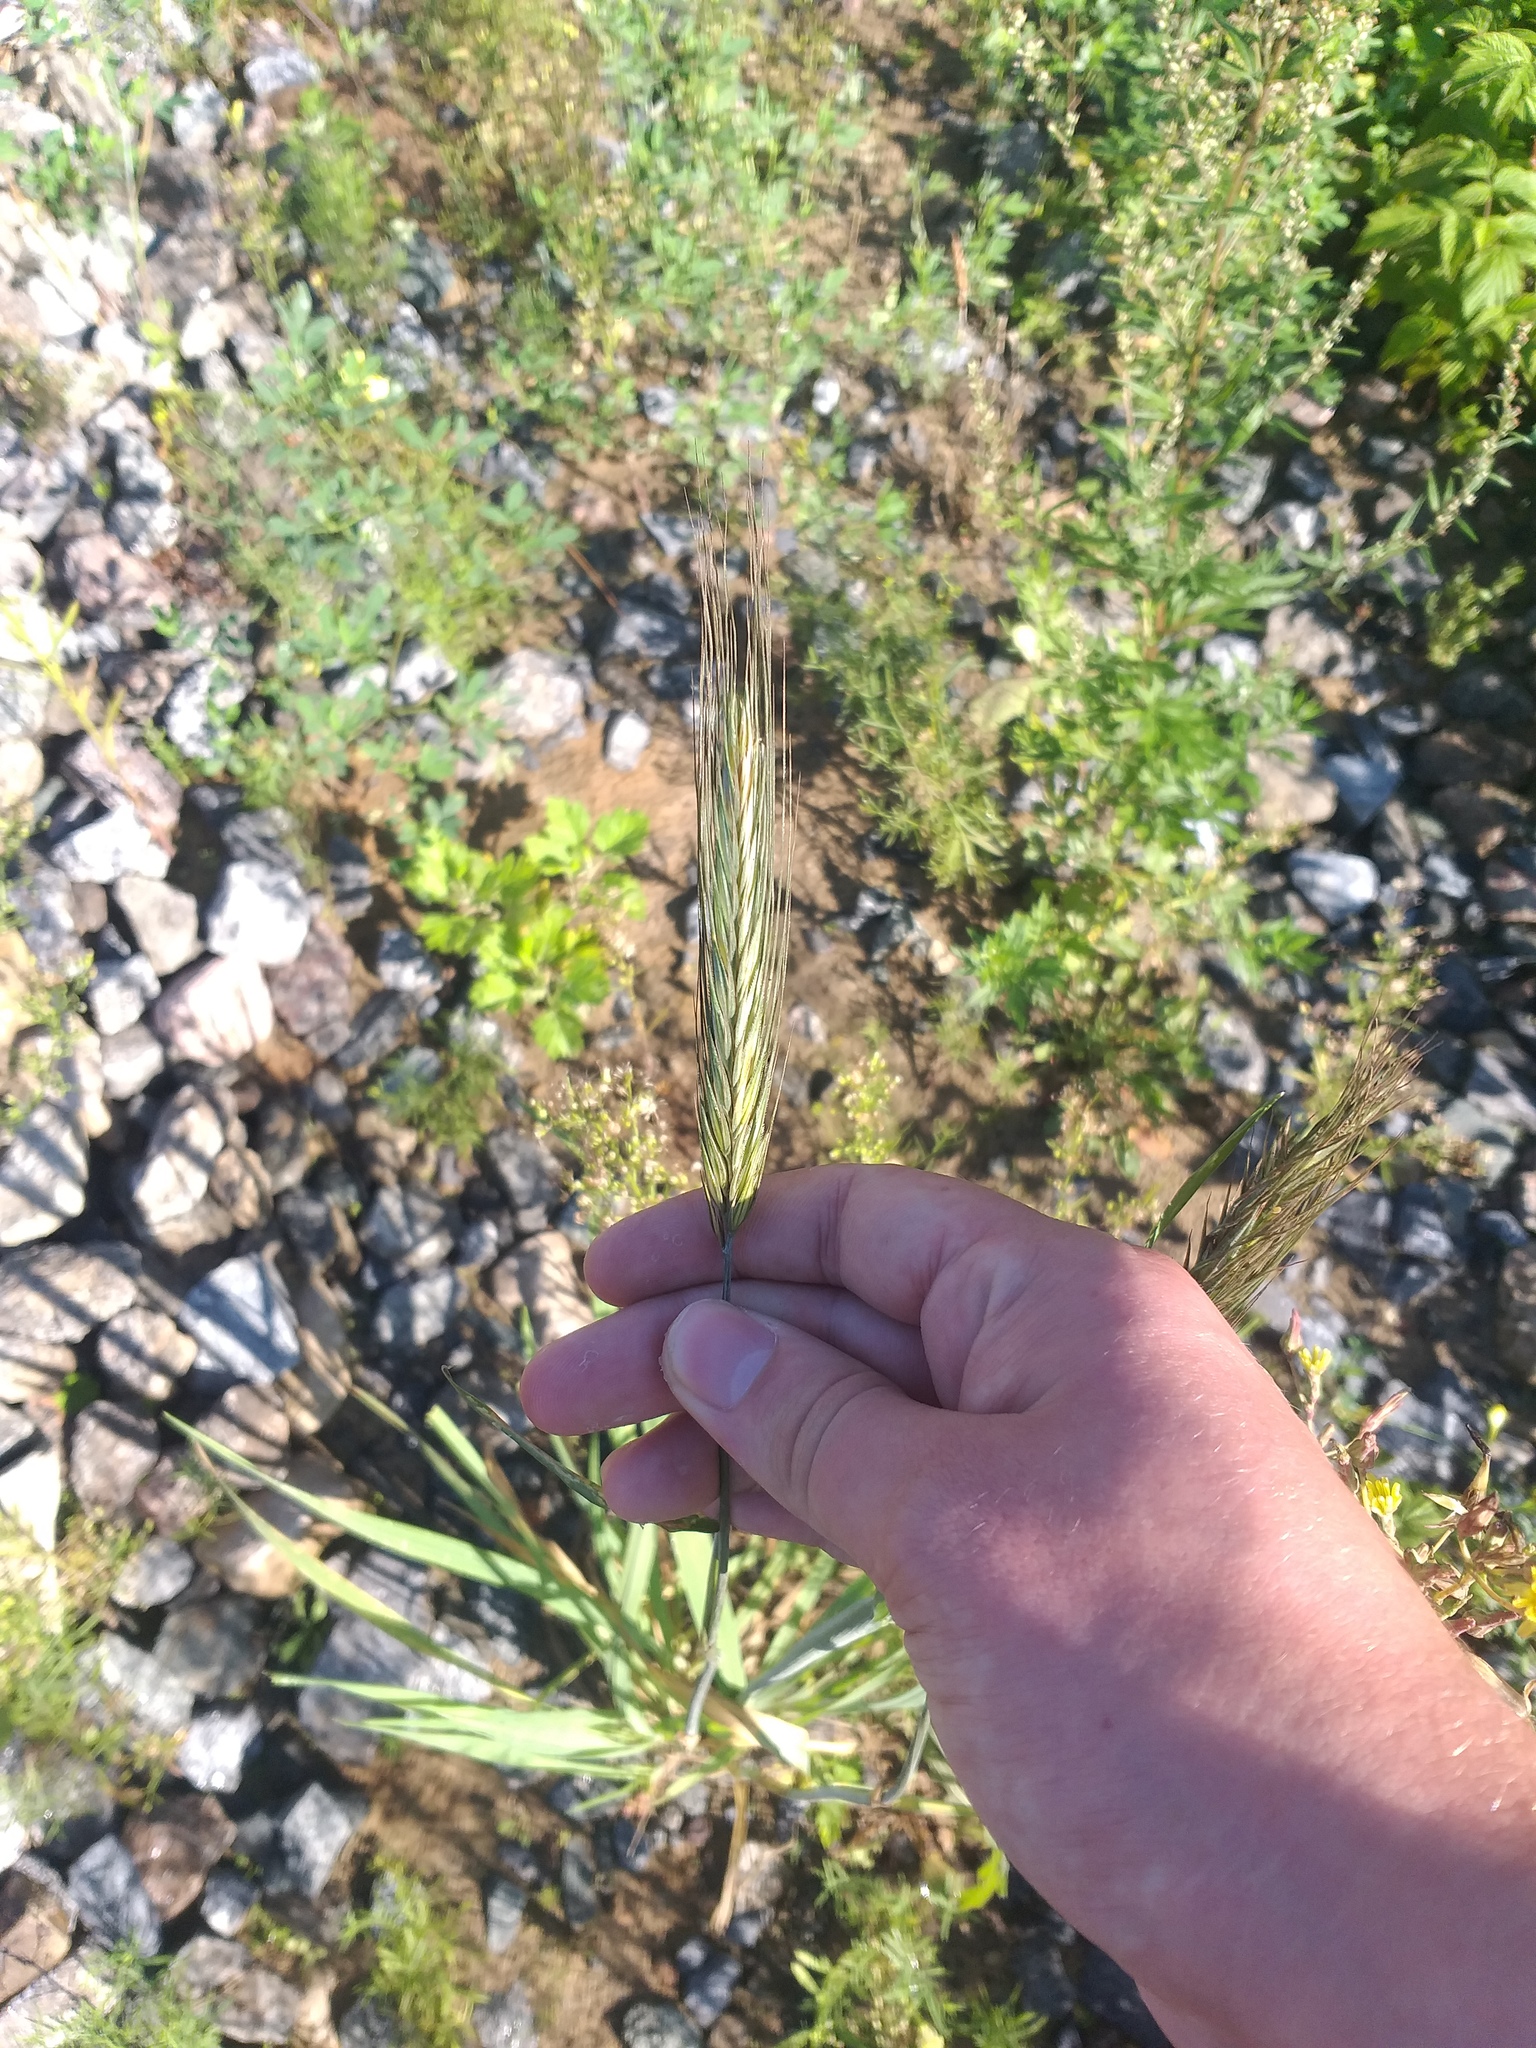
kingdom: Plantae
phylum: Tracheophyta
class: Liliopsida
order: Poales
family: Poaceae
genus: Secale
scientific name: Secale cereale
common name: Rye
